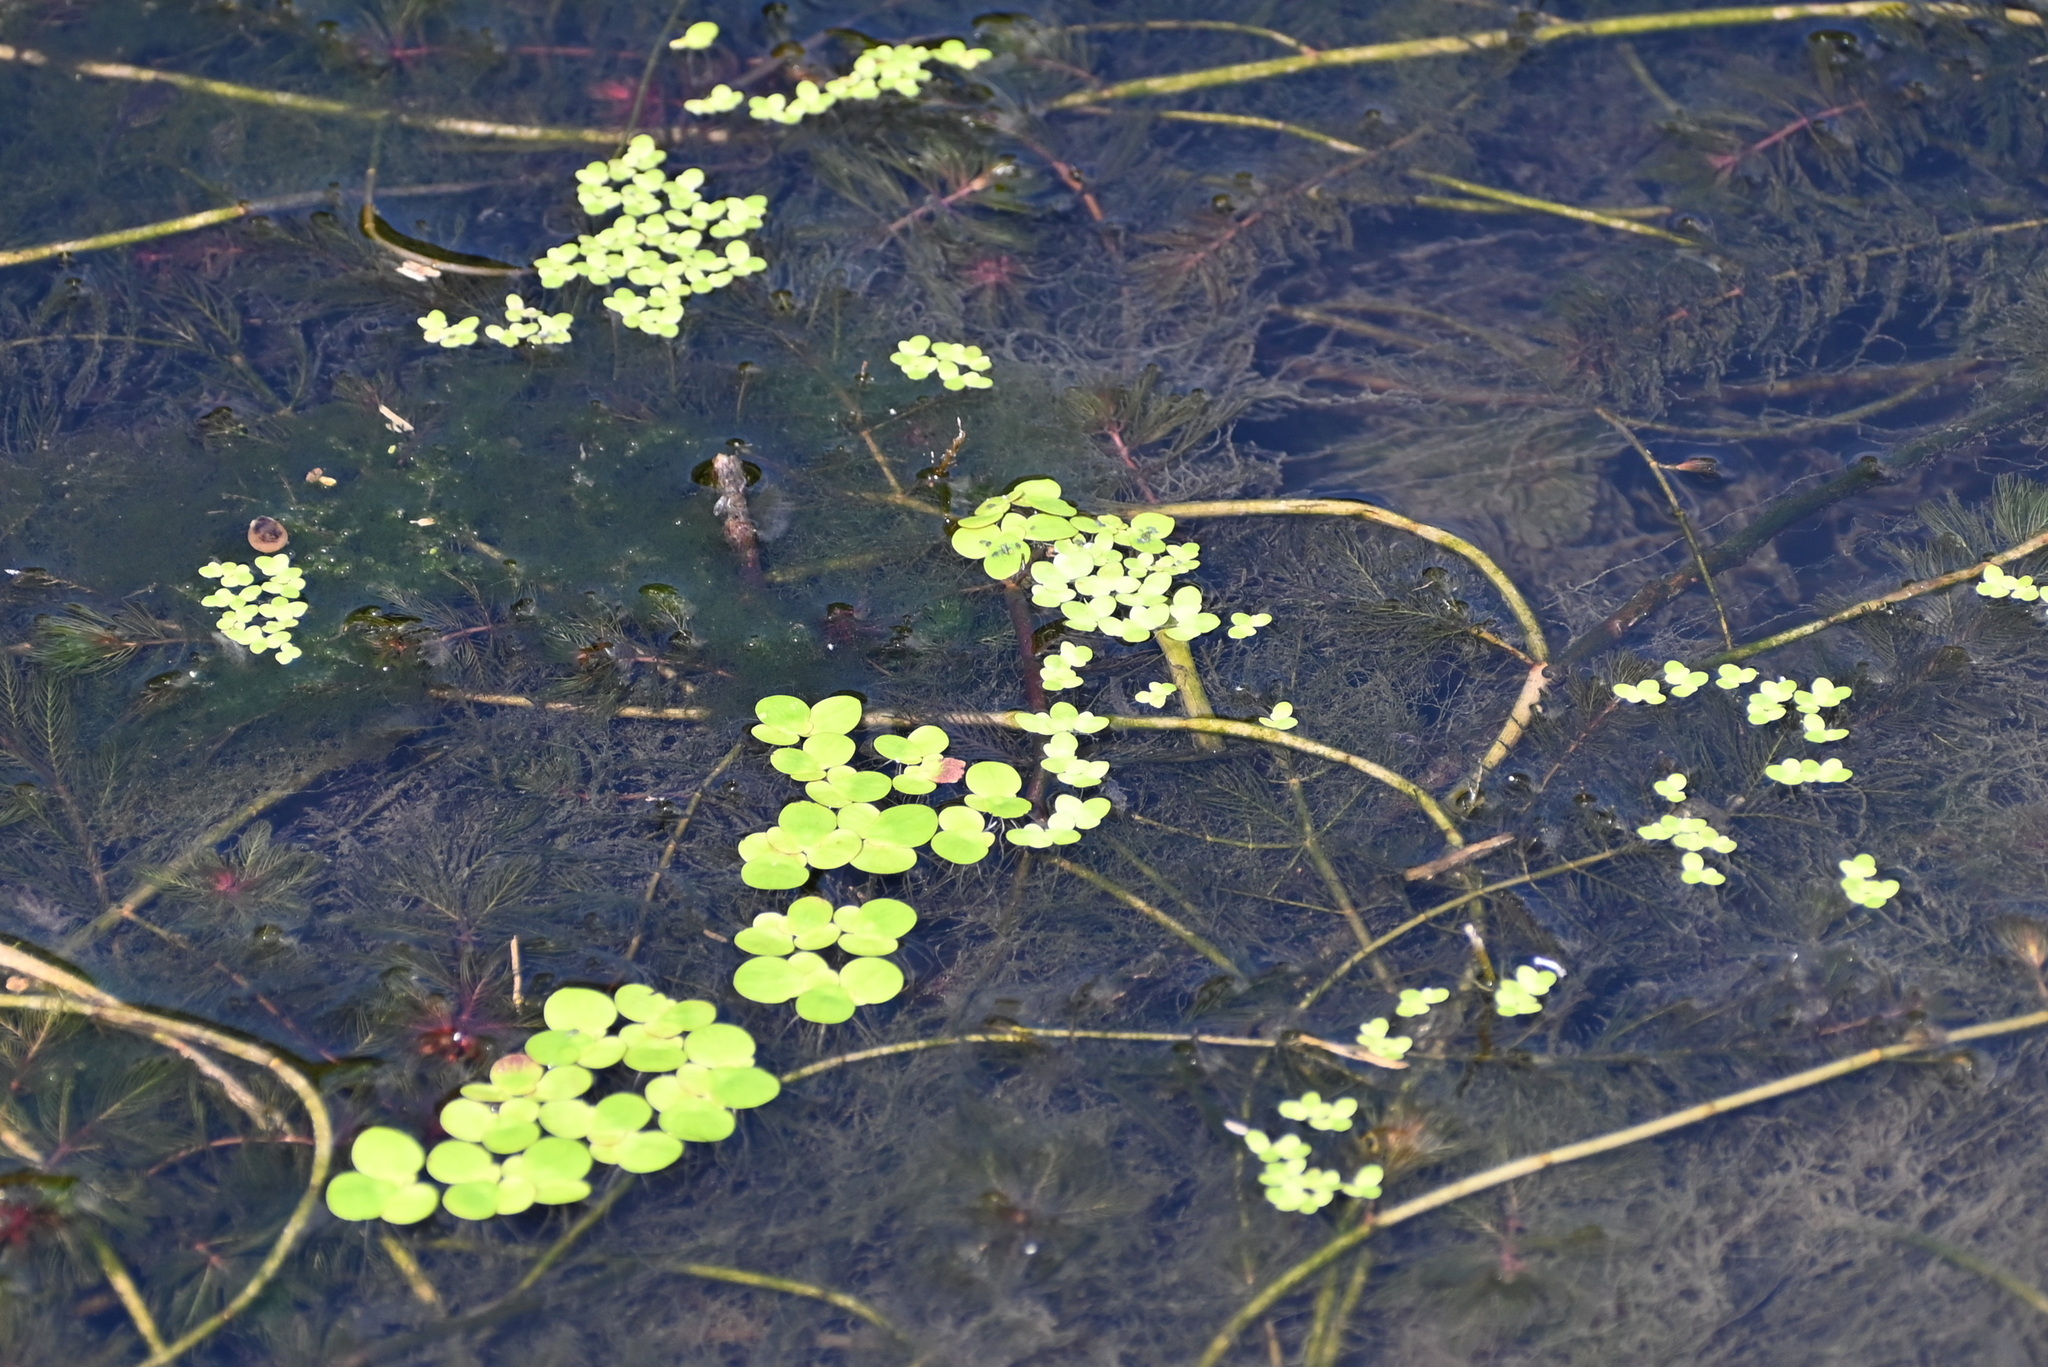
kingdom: Plantae
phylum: Tracheophyta
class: Liliopsida
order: Alismatales
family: Araceae
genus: Spirodela
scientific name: Spirodela polyrhiza
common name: Great duckweed
